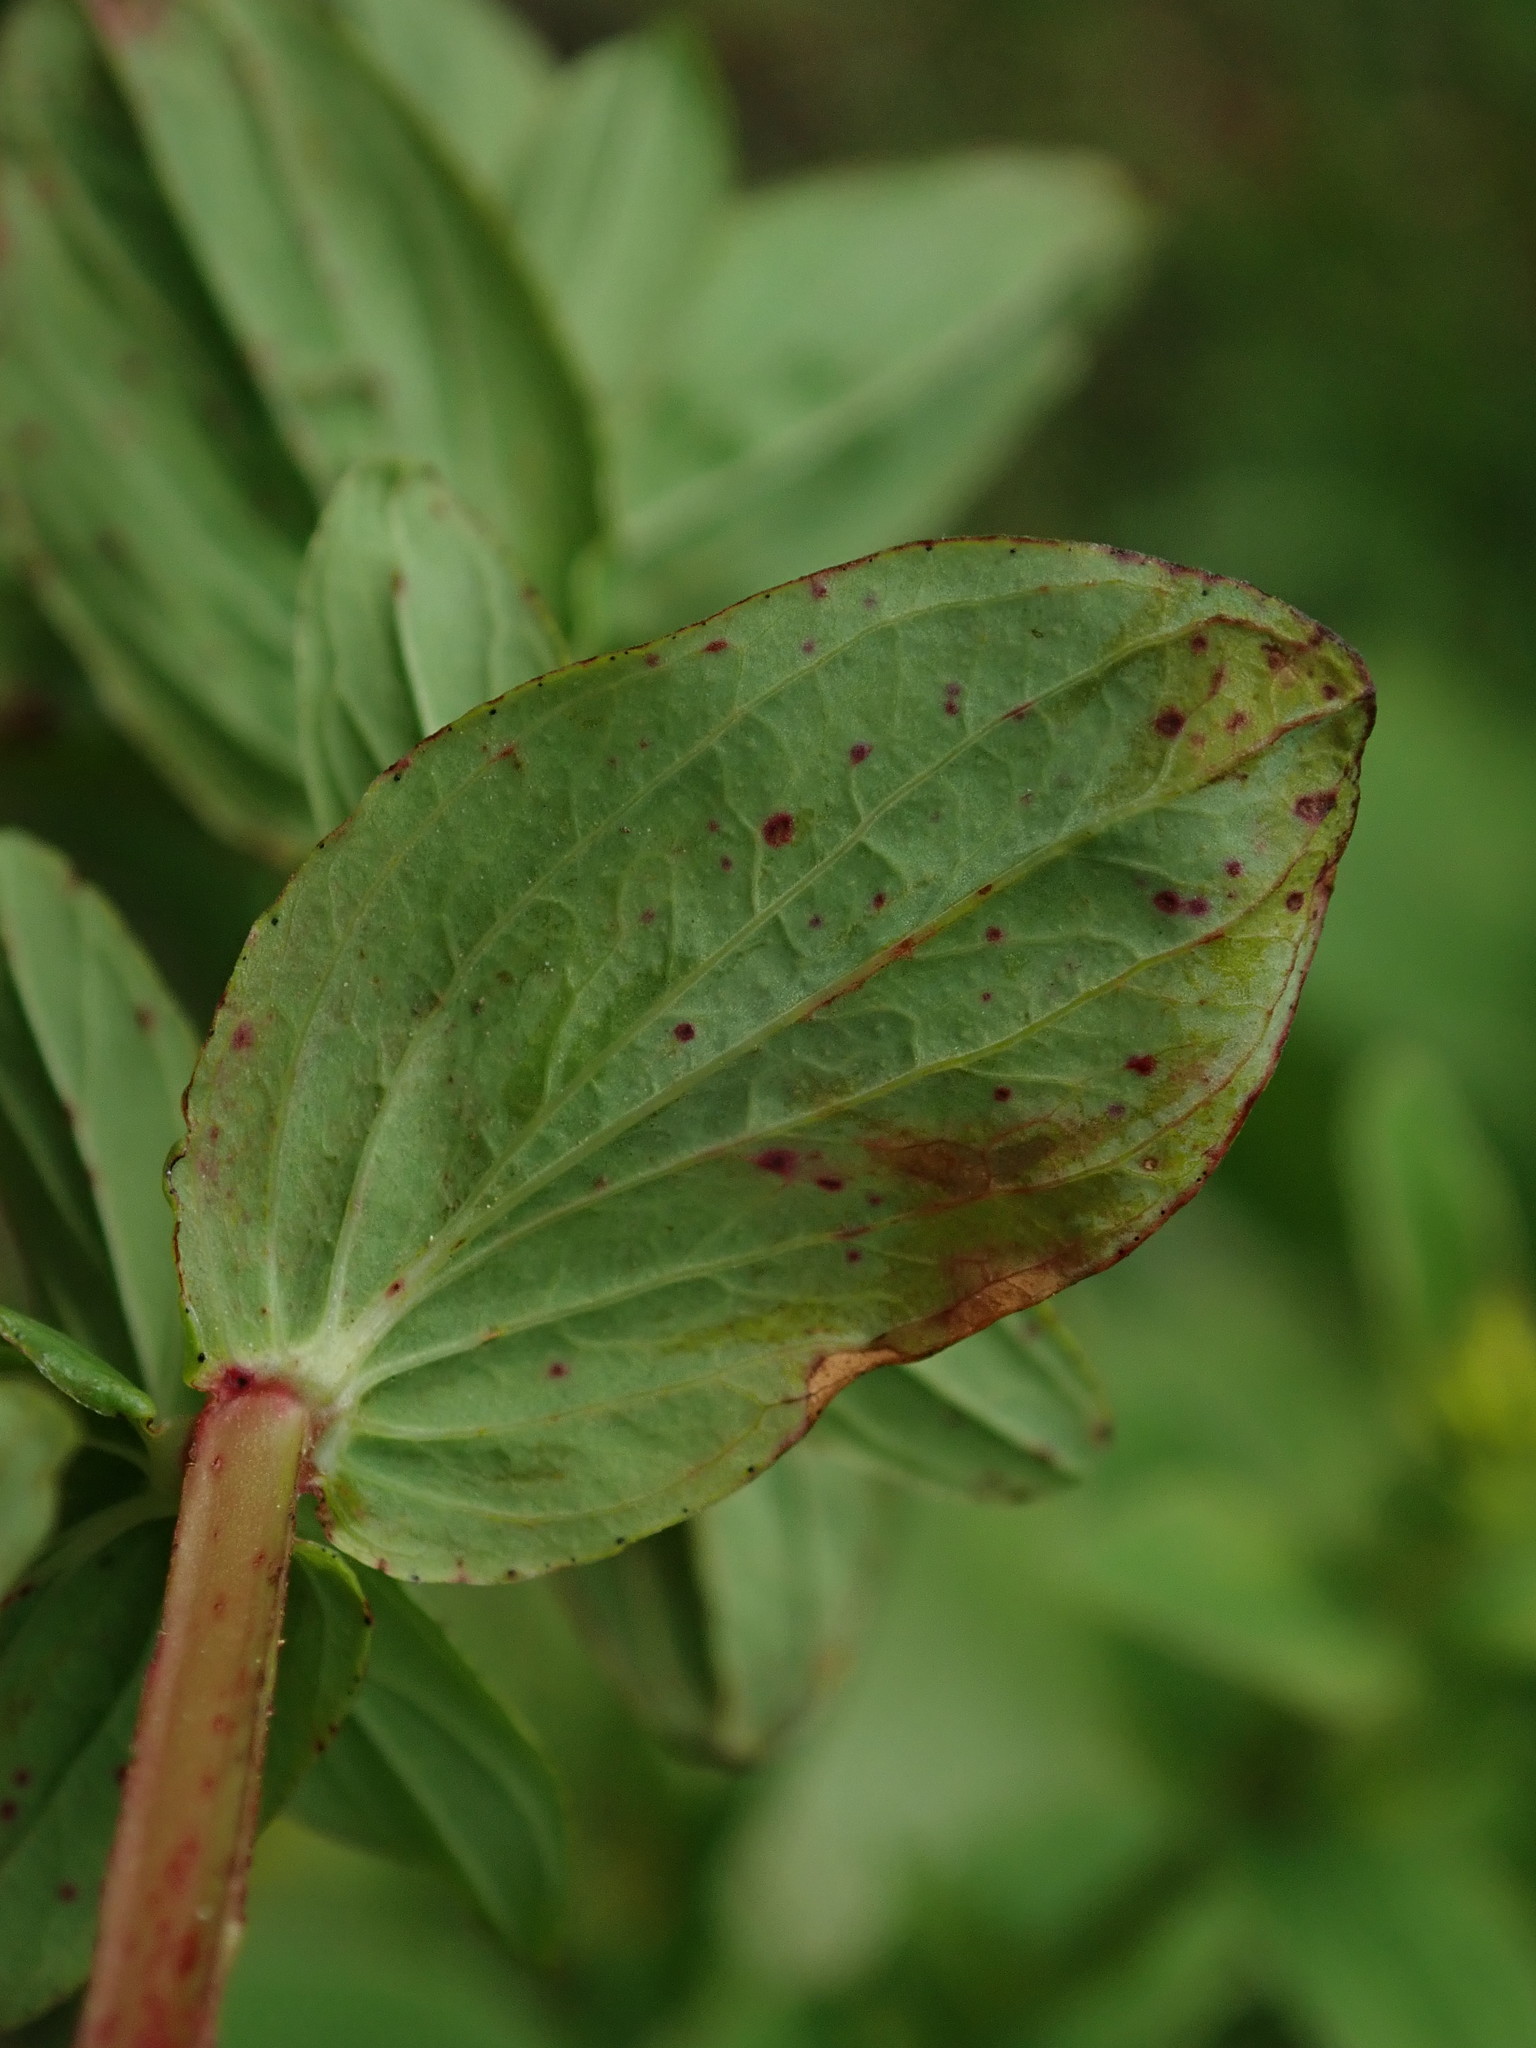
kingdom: Plantae
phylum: Tracheophyta
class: Magnoliopsida
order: Malpighiales
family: Hypericaceae
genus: Hypericum
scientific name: Hypericum tetrapterum
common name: Square-stalked st. john's-wort
